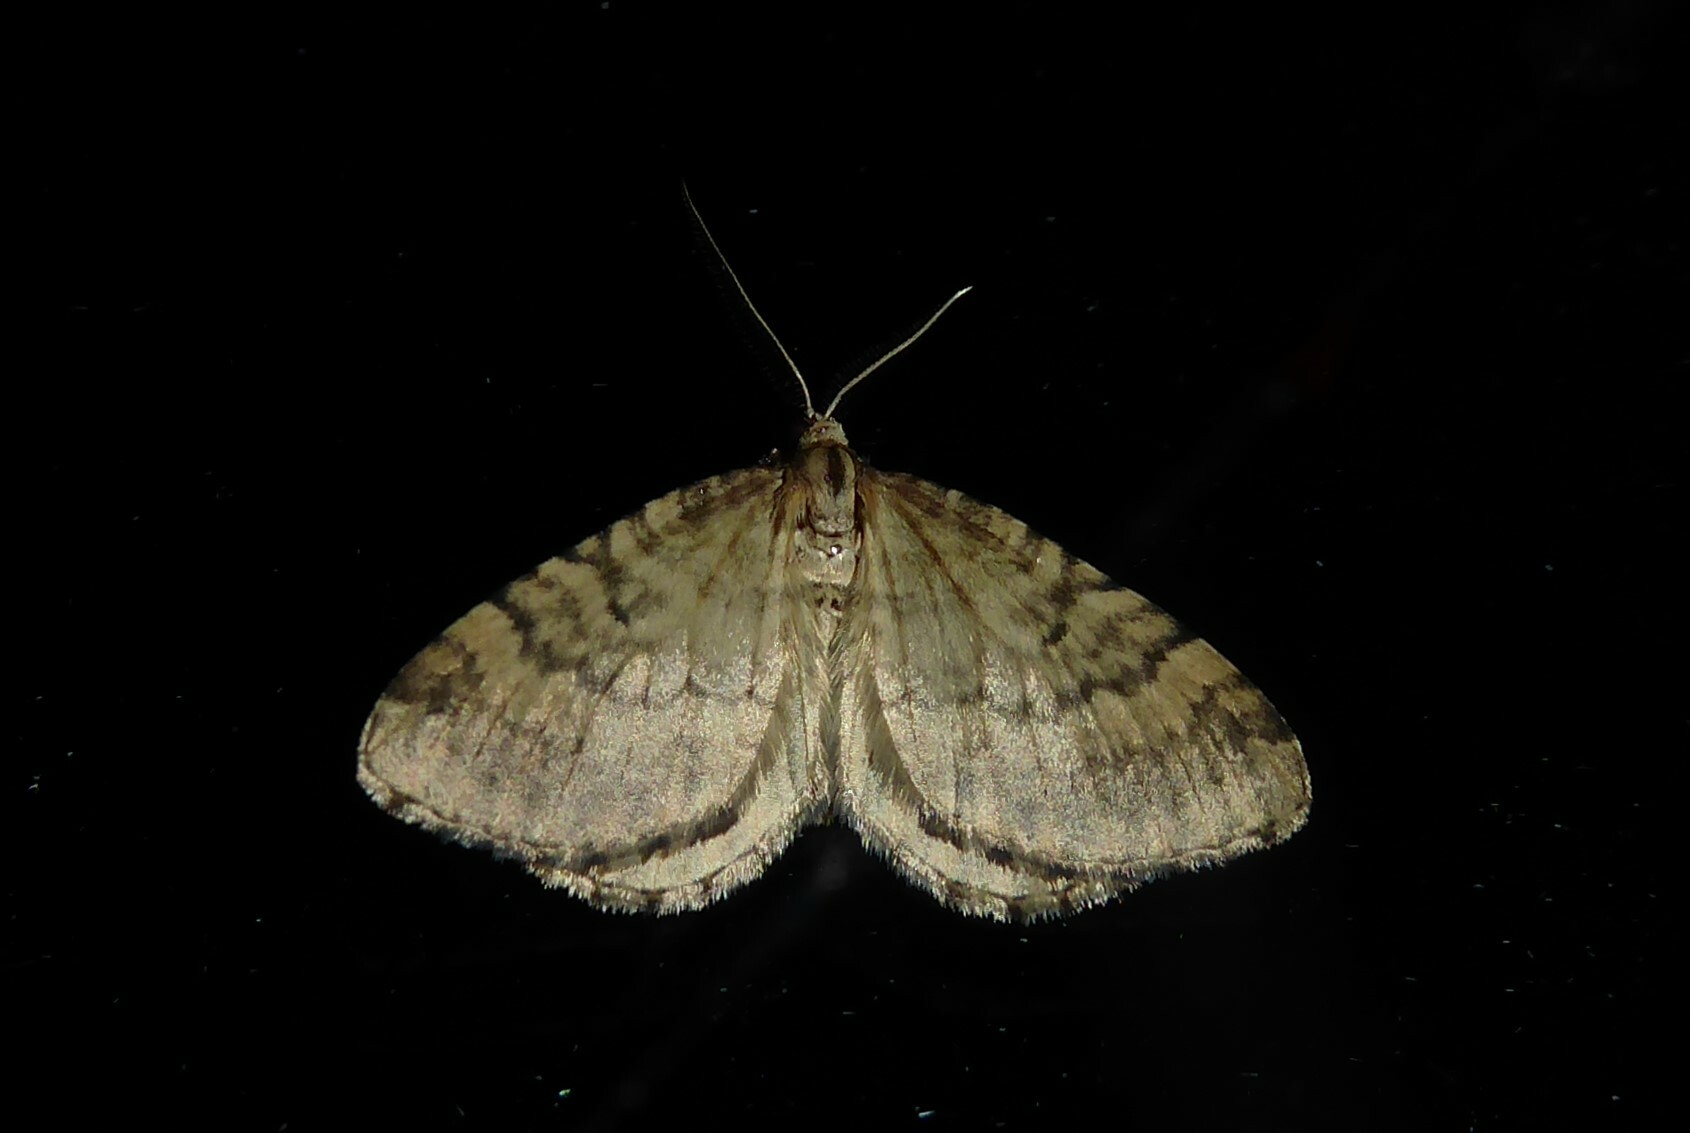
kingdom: Animalia
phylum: Arthropoda
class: Insecta
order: Lepidoptera
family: Geometridae
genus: Asaphodes
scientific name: Asaphodes aegrota
